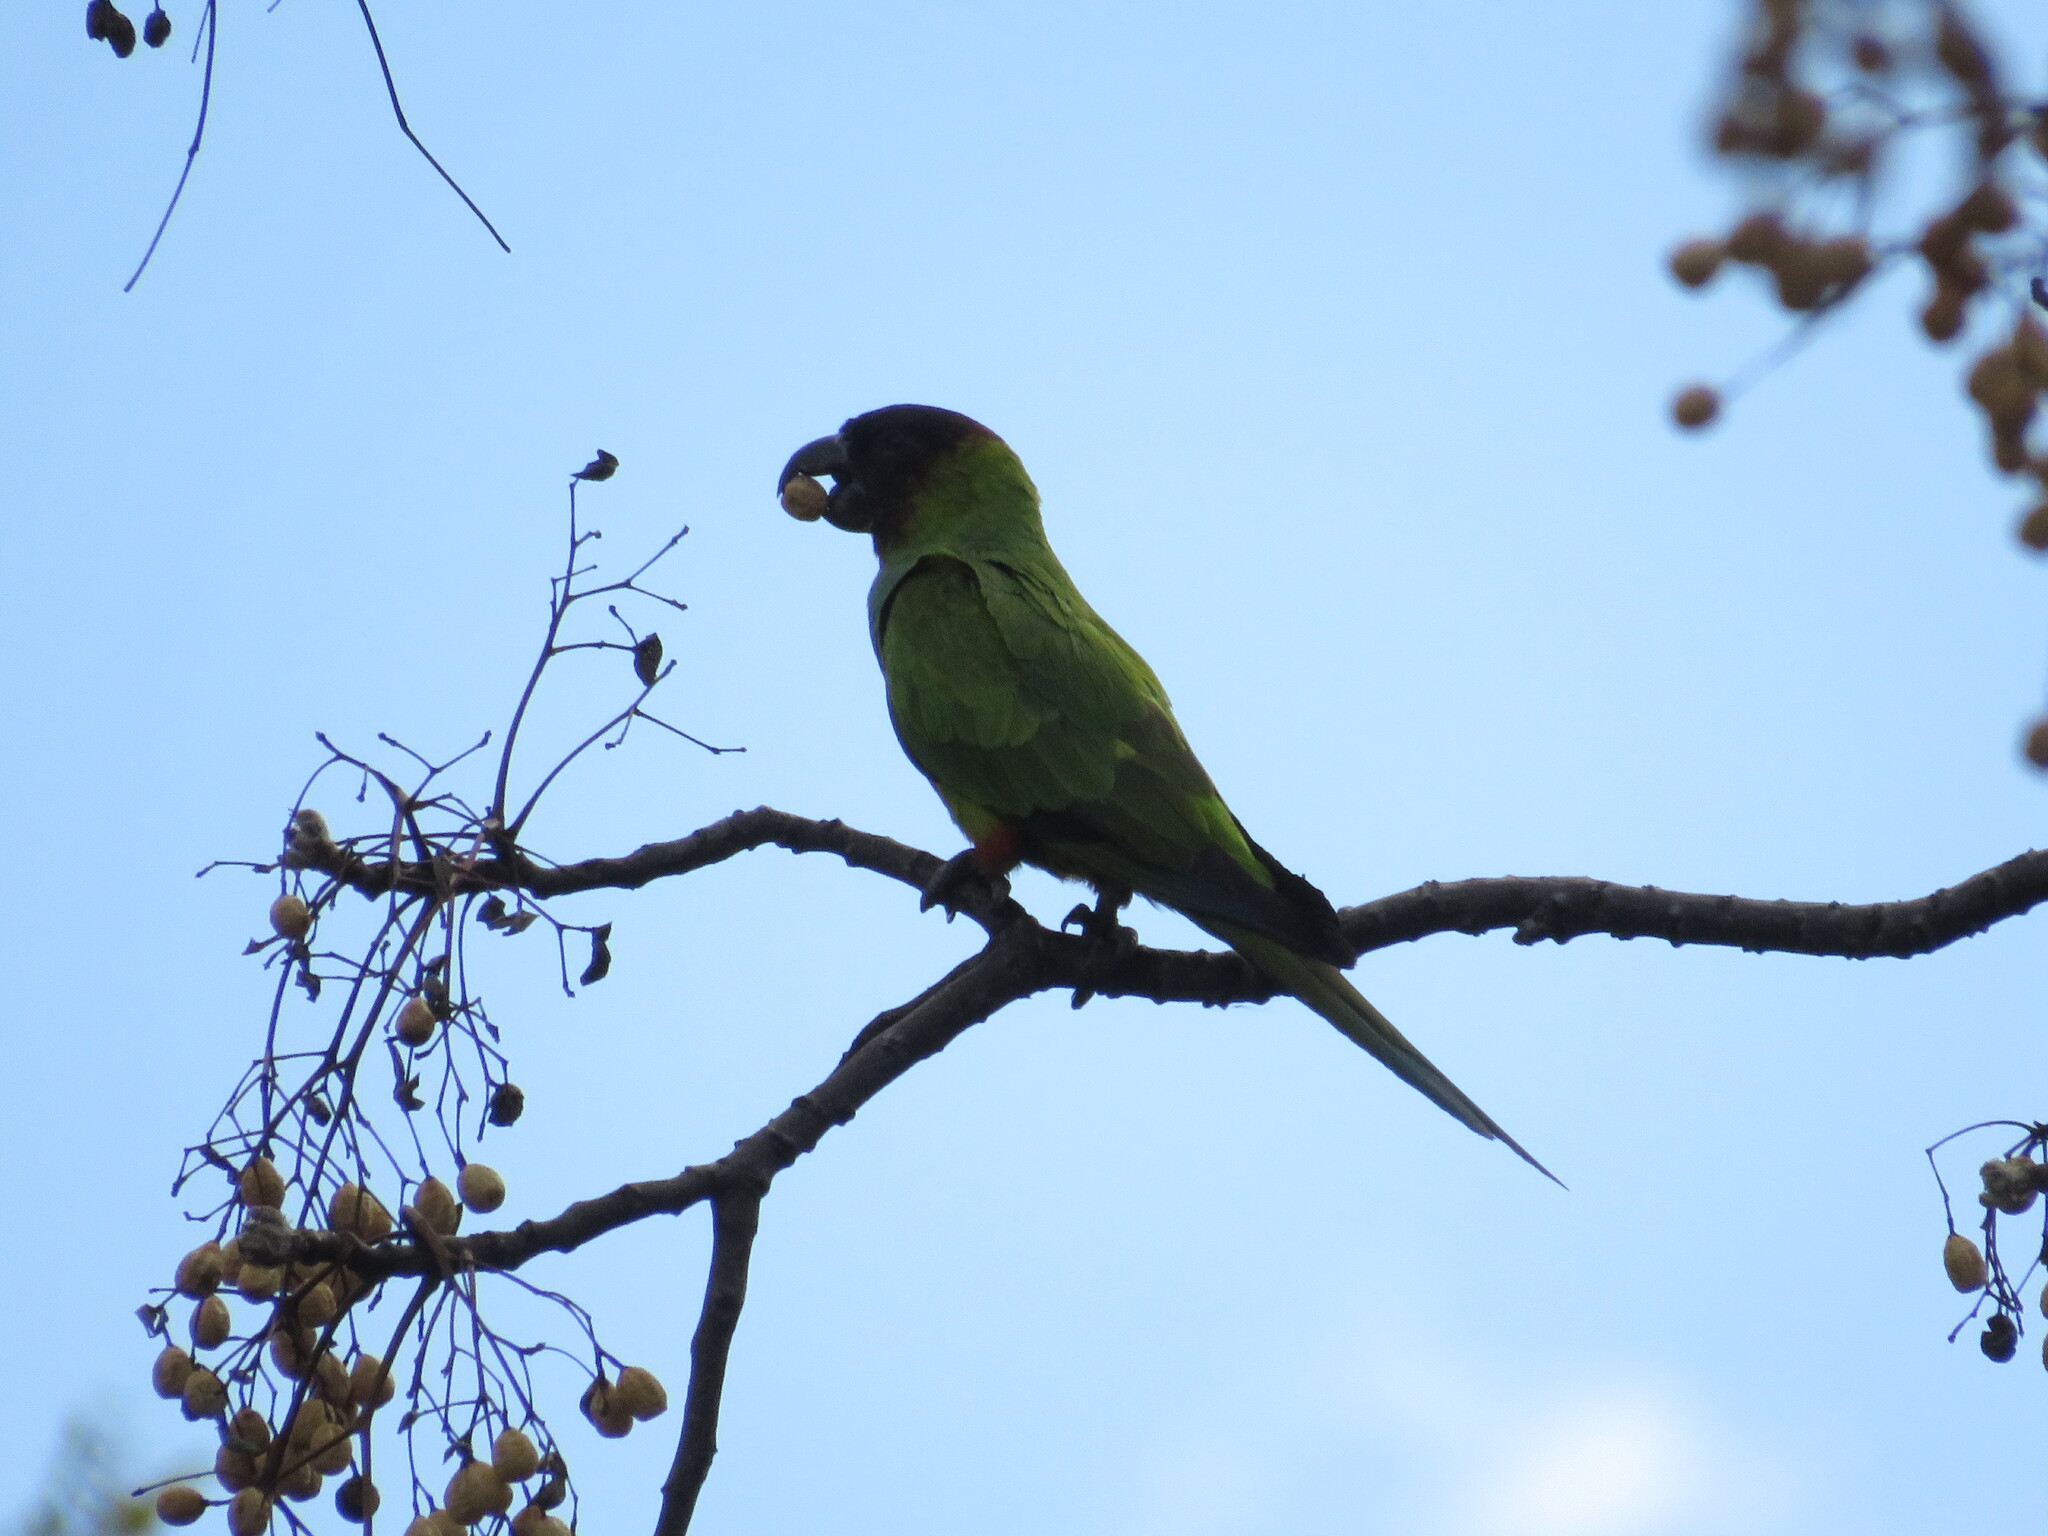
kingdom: Animalia
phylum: Chordata
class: Aves
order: Psittaciformes
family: Psittacidae
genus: Nandayus
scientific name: Nandayus nenday
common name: Nanday parakeet
